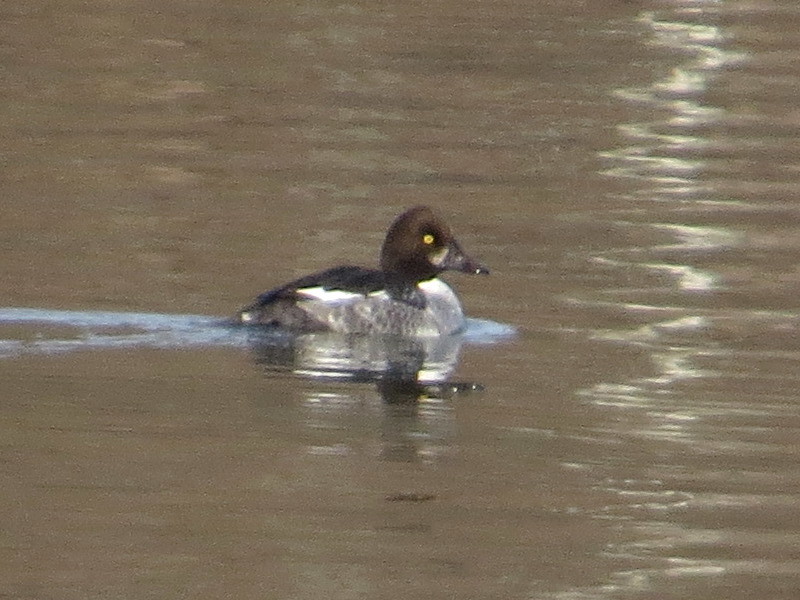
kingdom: Animalia
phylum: Chordata
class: Aves
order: Anseriformes
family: Anatidae
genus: Bucephala
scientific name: Bucephala clangula
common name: Common goldeneye
